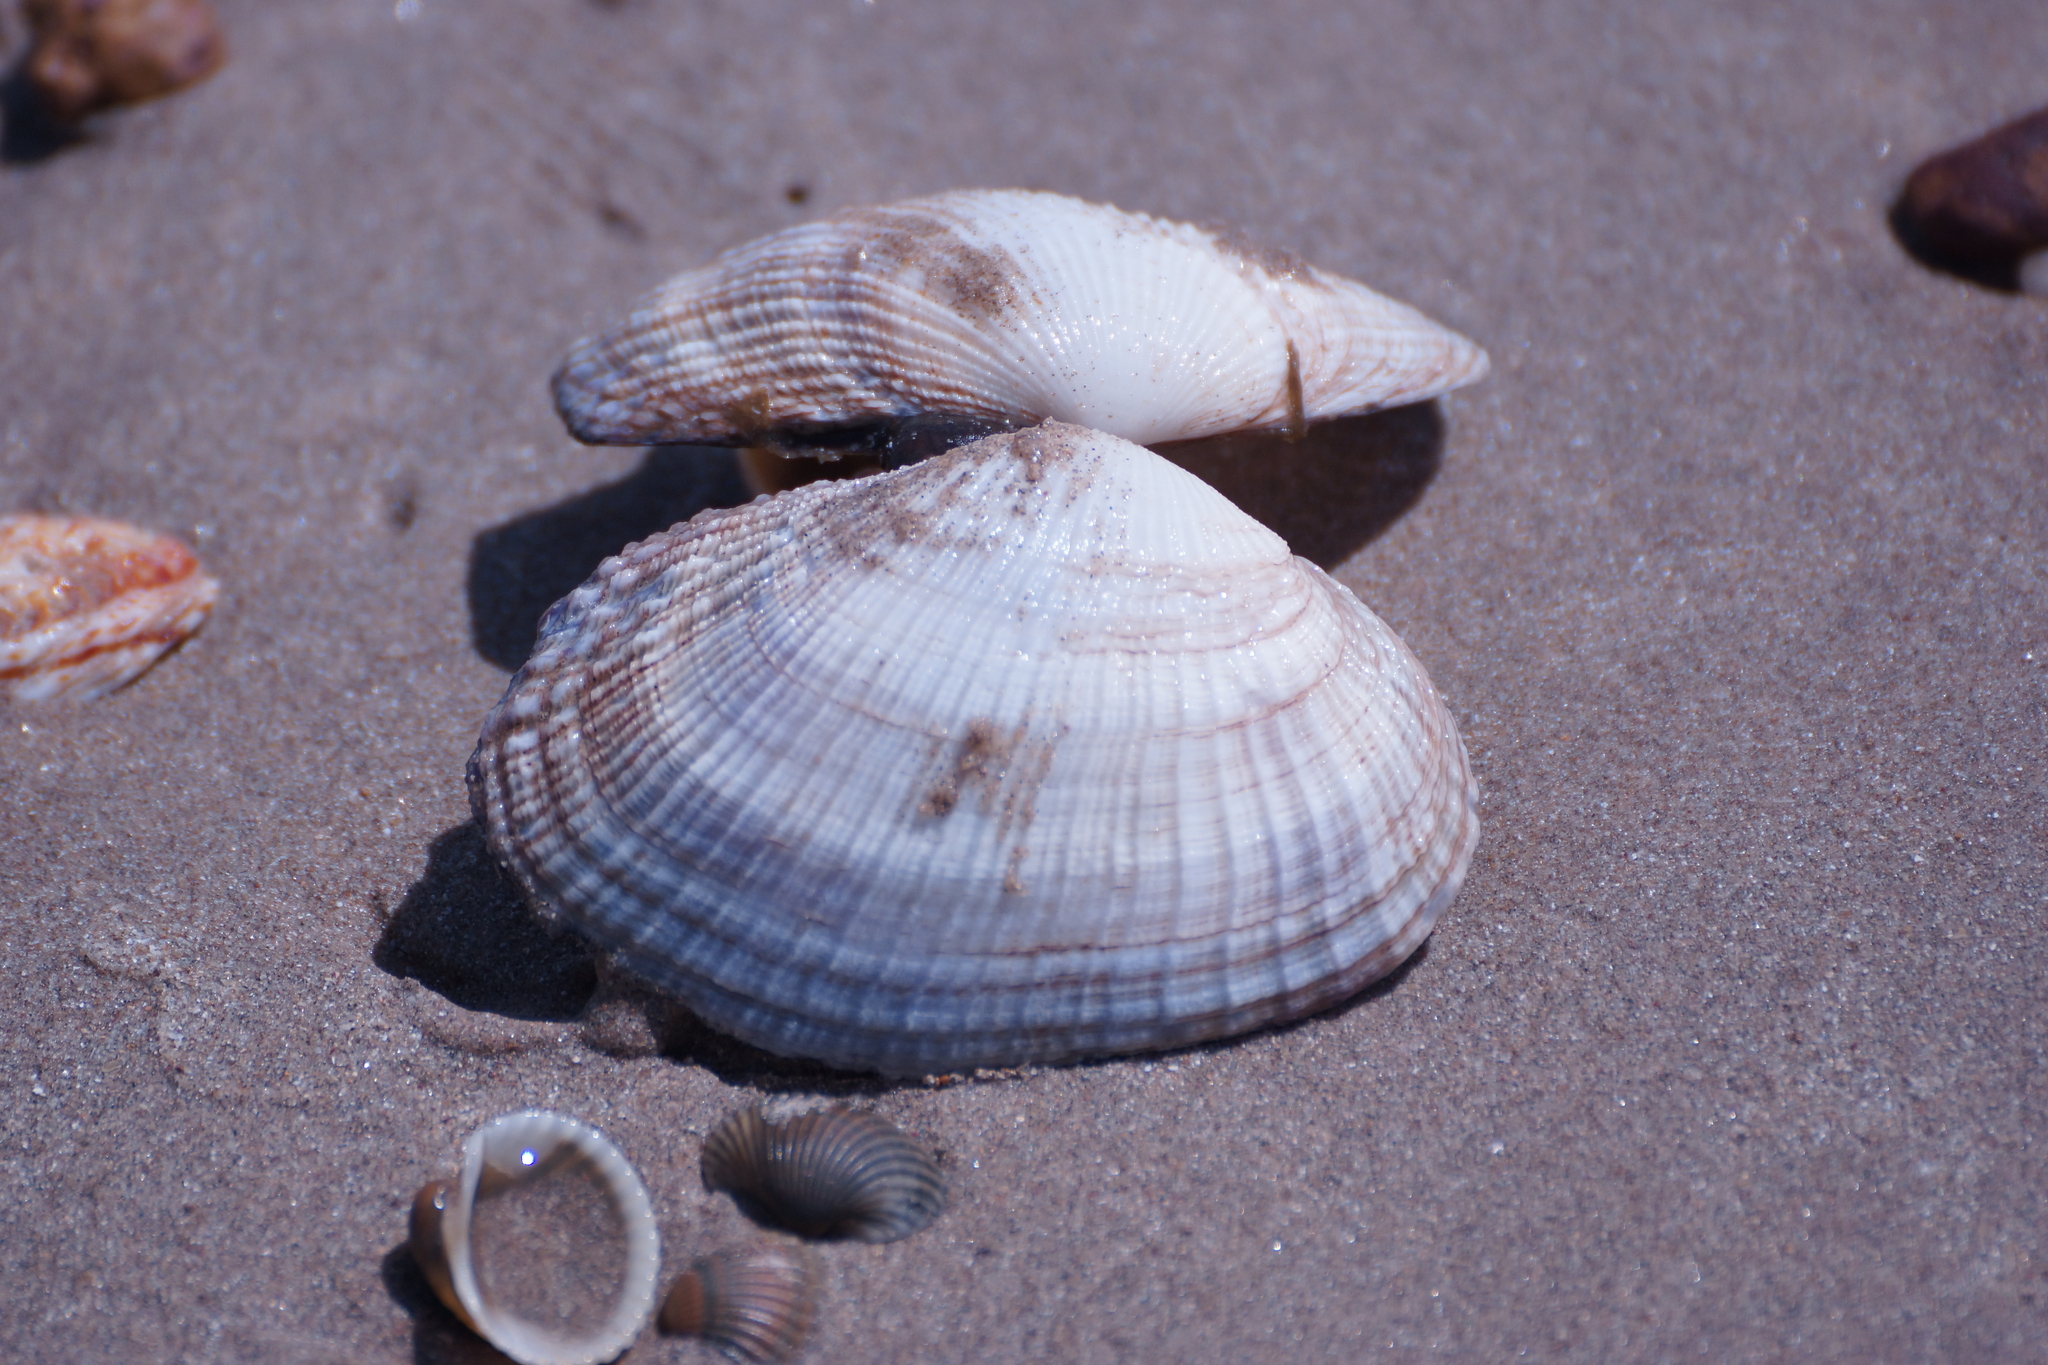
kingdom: Animalia
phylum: Mollusca
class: Bivalvia
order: Cardiida
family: Psammobiidae
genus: Asaphis
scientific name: Asaphis violascens
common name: Pacific asaphis
